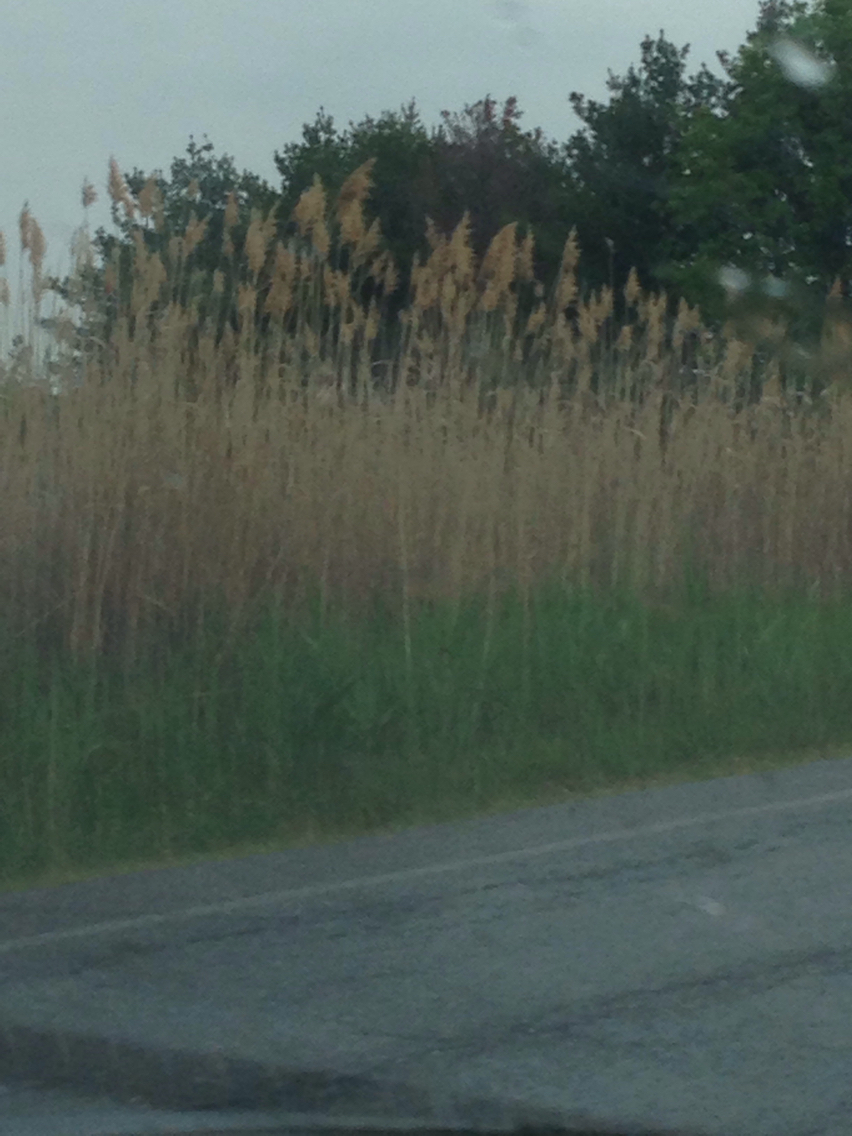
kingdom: Plantae
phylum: Tracheophyta
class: Liliopsida
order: Poales
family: Poaceae
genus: Phragmites
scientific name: Phragmites australis
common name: Common reed
